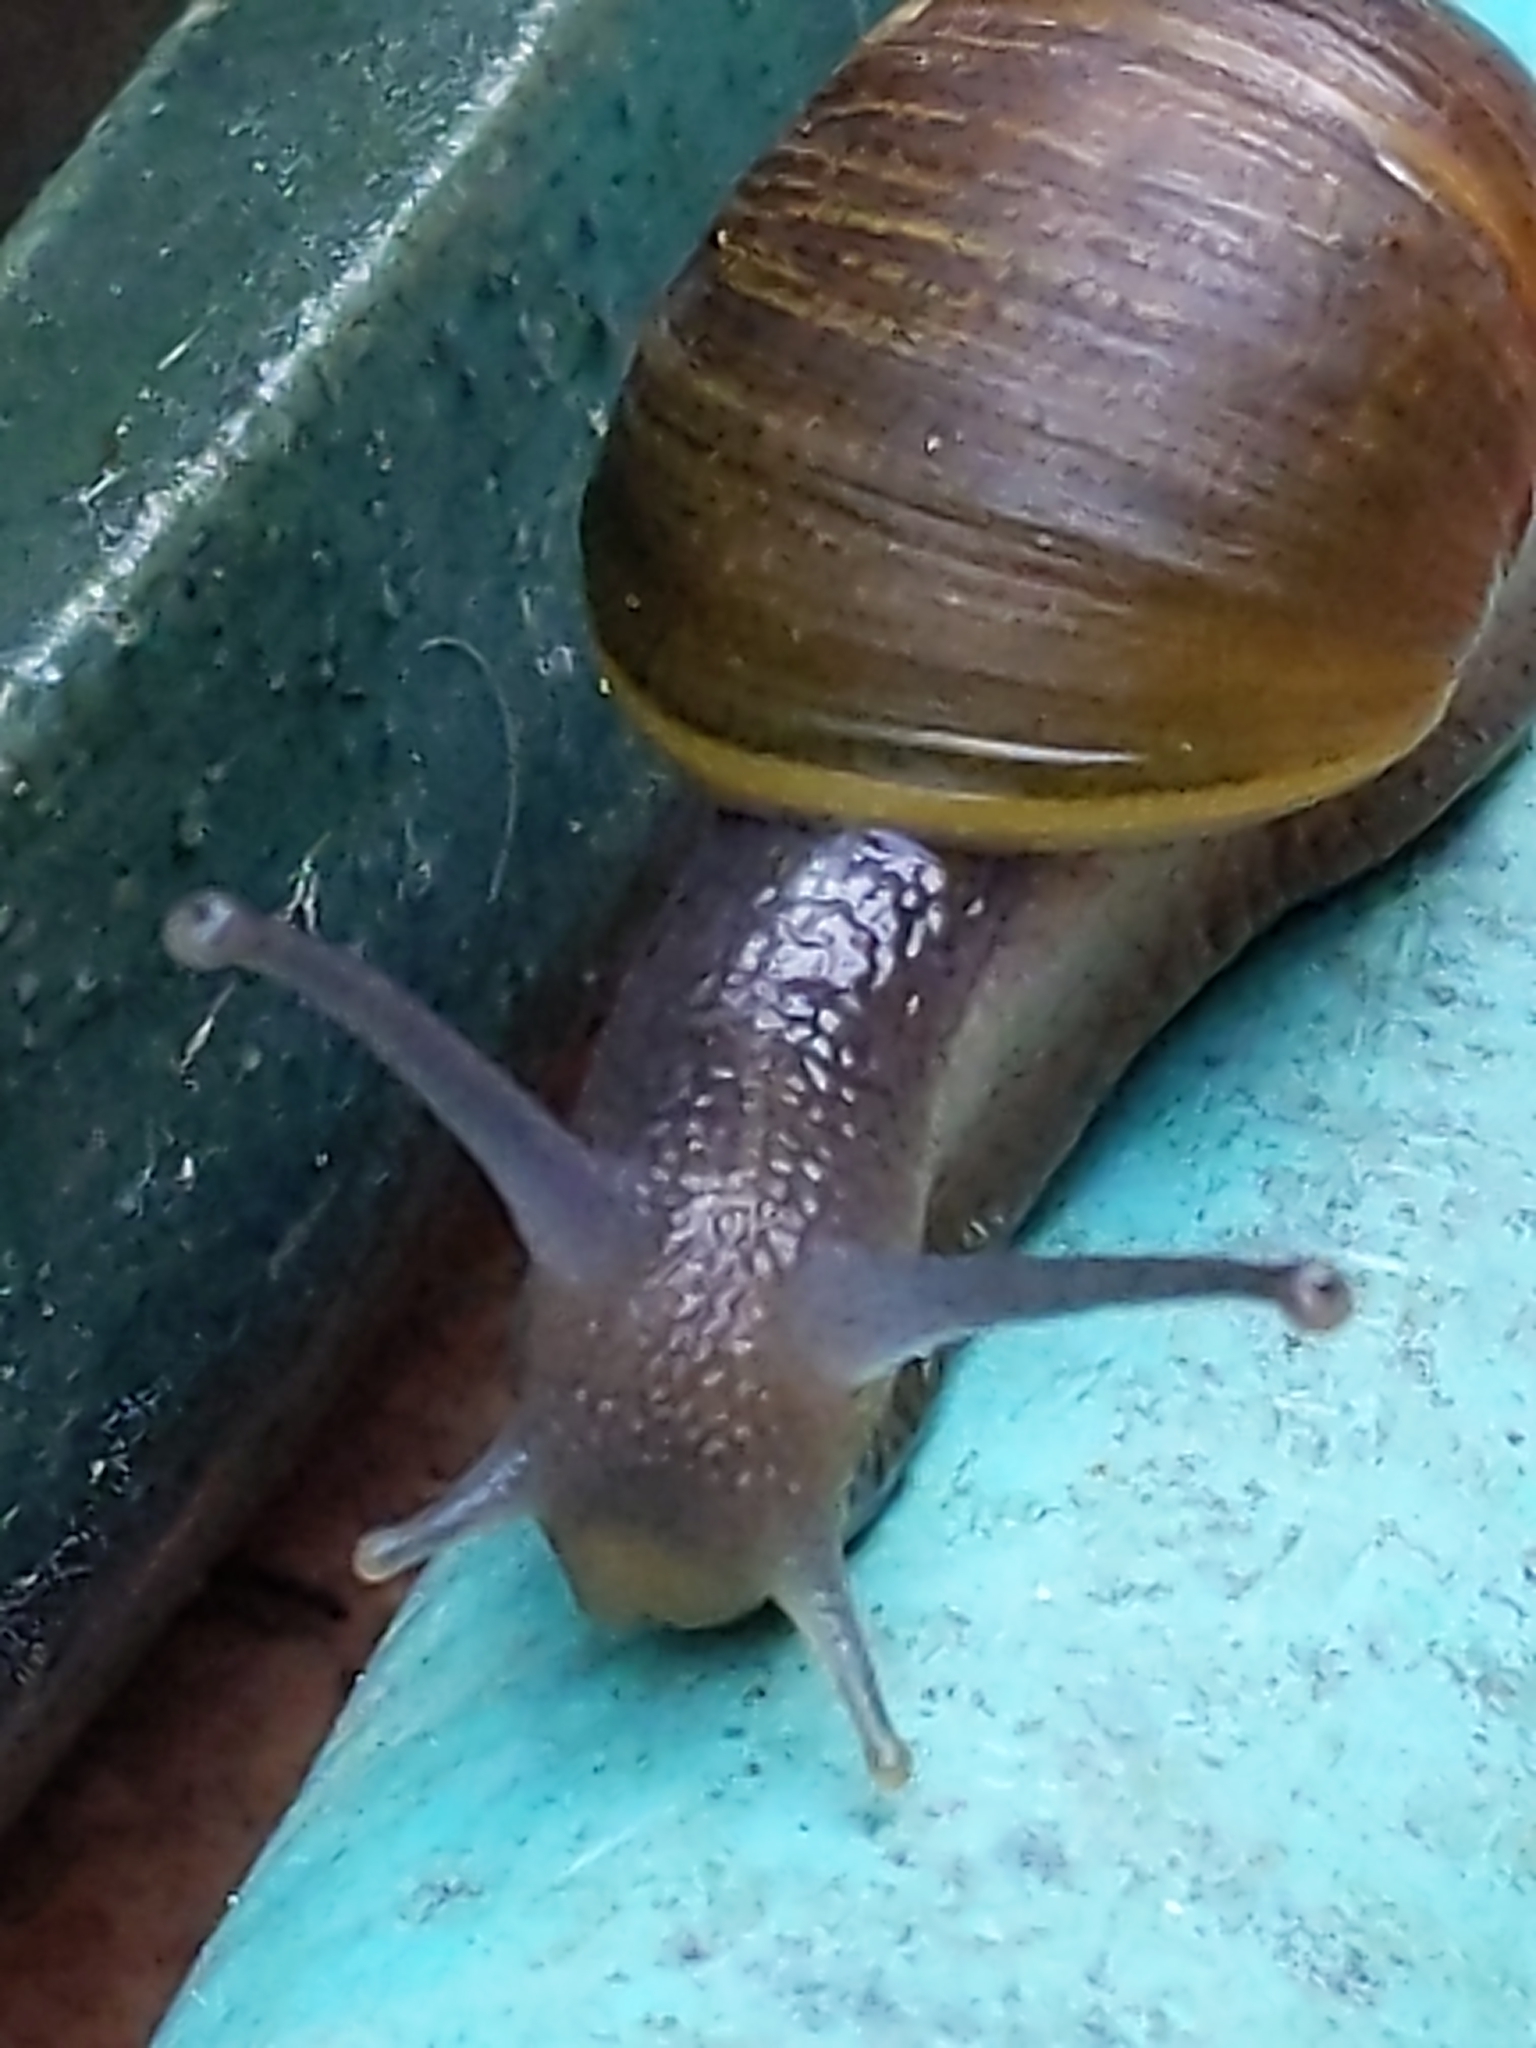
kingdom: Animalia
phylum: Mollusca
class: Gastropoda
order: Stylommatophora
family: Helicidae
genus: Cantareus
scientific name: Cantareus apertus
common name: Green gardensnail
